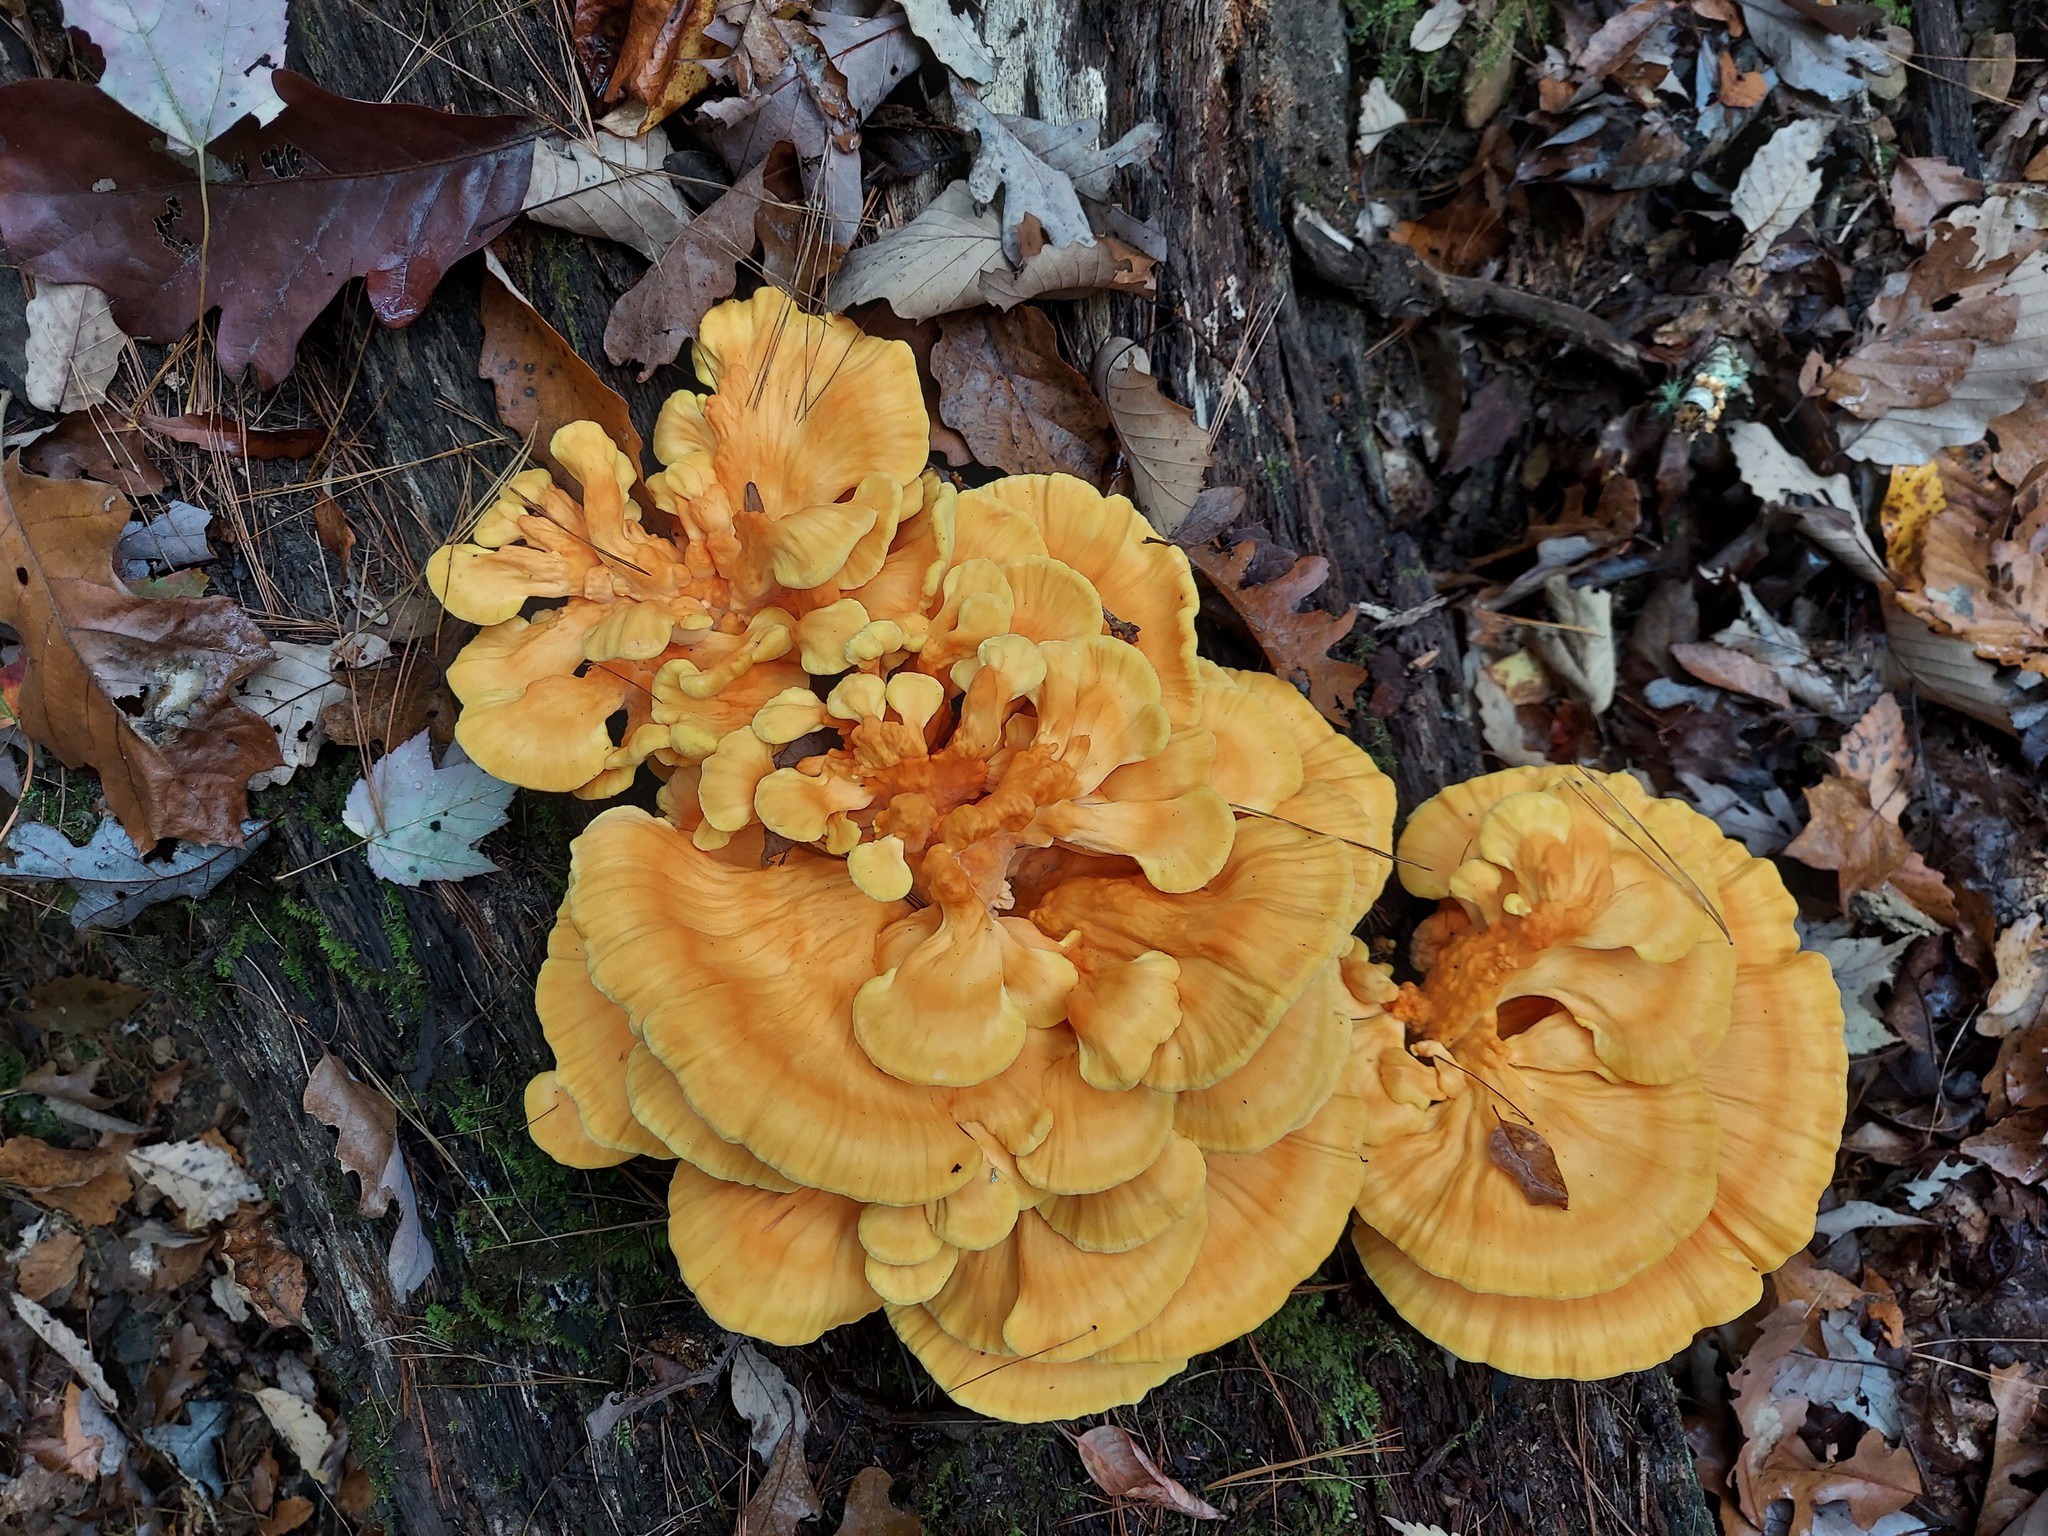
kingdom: Fungi
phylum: Basidiomycota
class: Agaricomycetes
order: Polyporales
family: Laetiporaceae
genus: Laetiporus
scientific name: Laetiporus sulphureus
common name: Chicken of the woods
